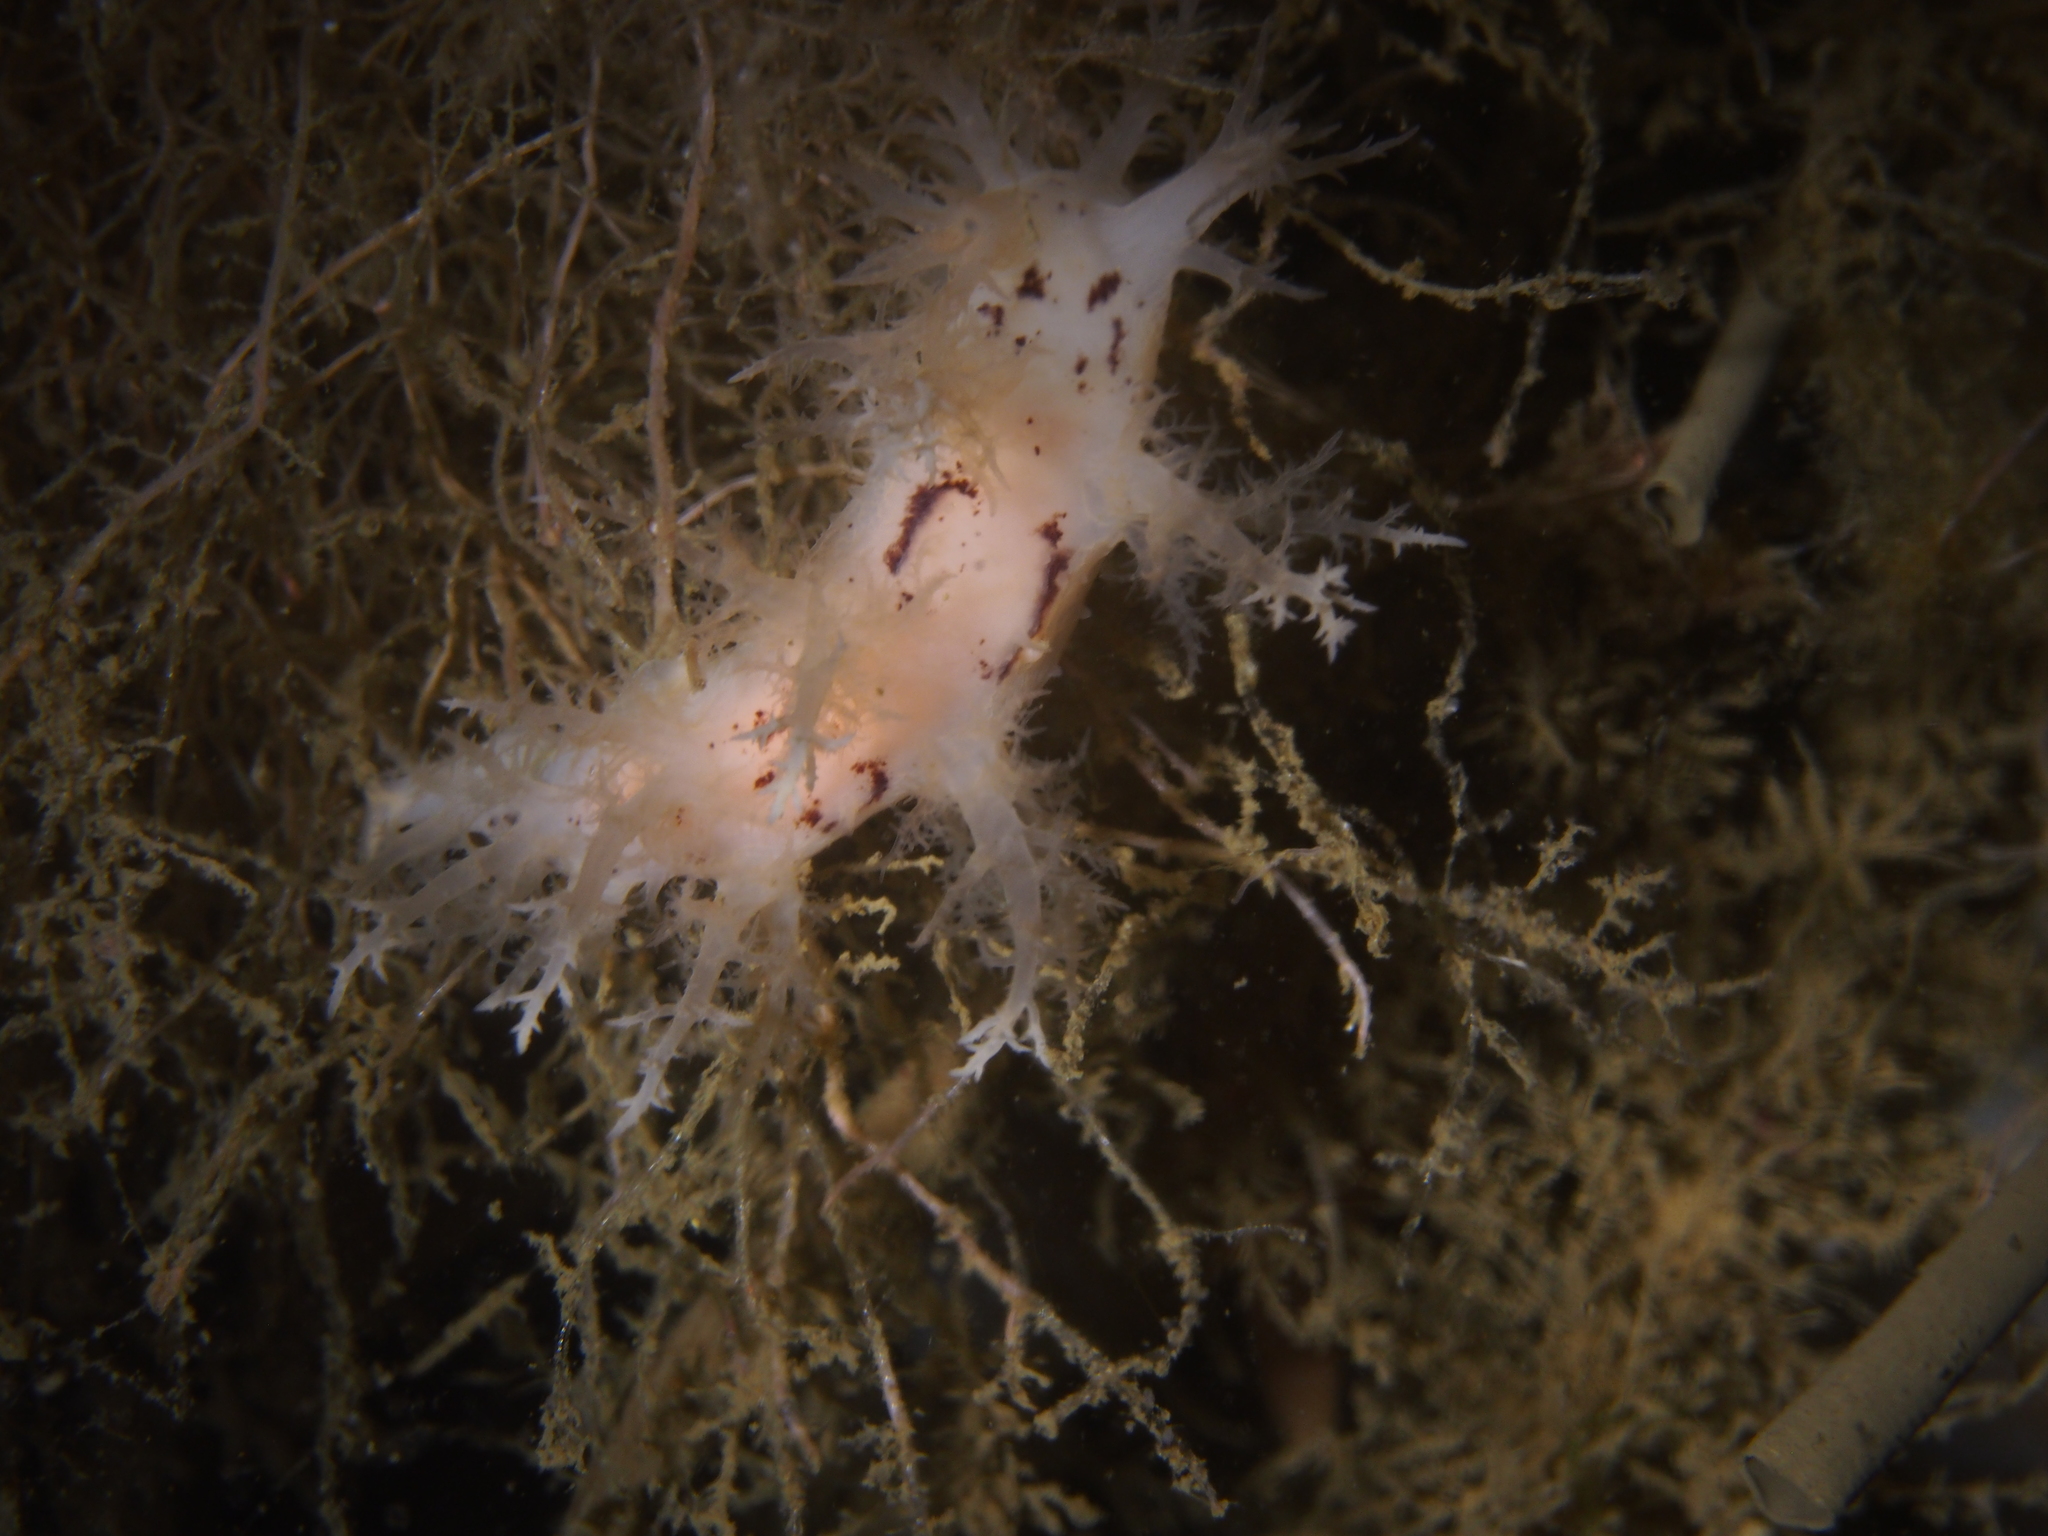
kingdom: Animalia
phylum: Mollusca
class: Gastropoda
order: Nudibranchia
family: Dendronotidae
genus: Dendronotus
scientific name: Dendronotus europaeus
